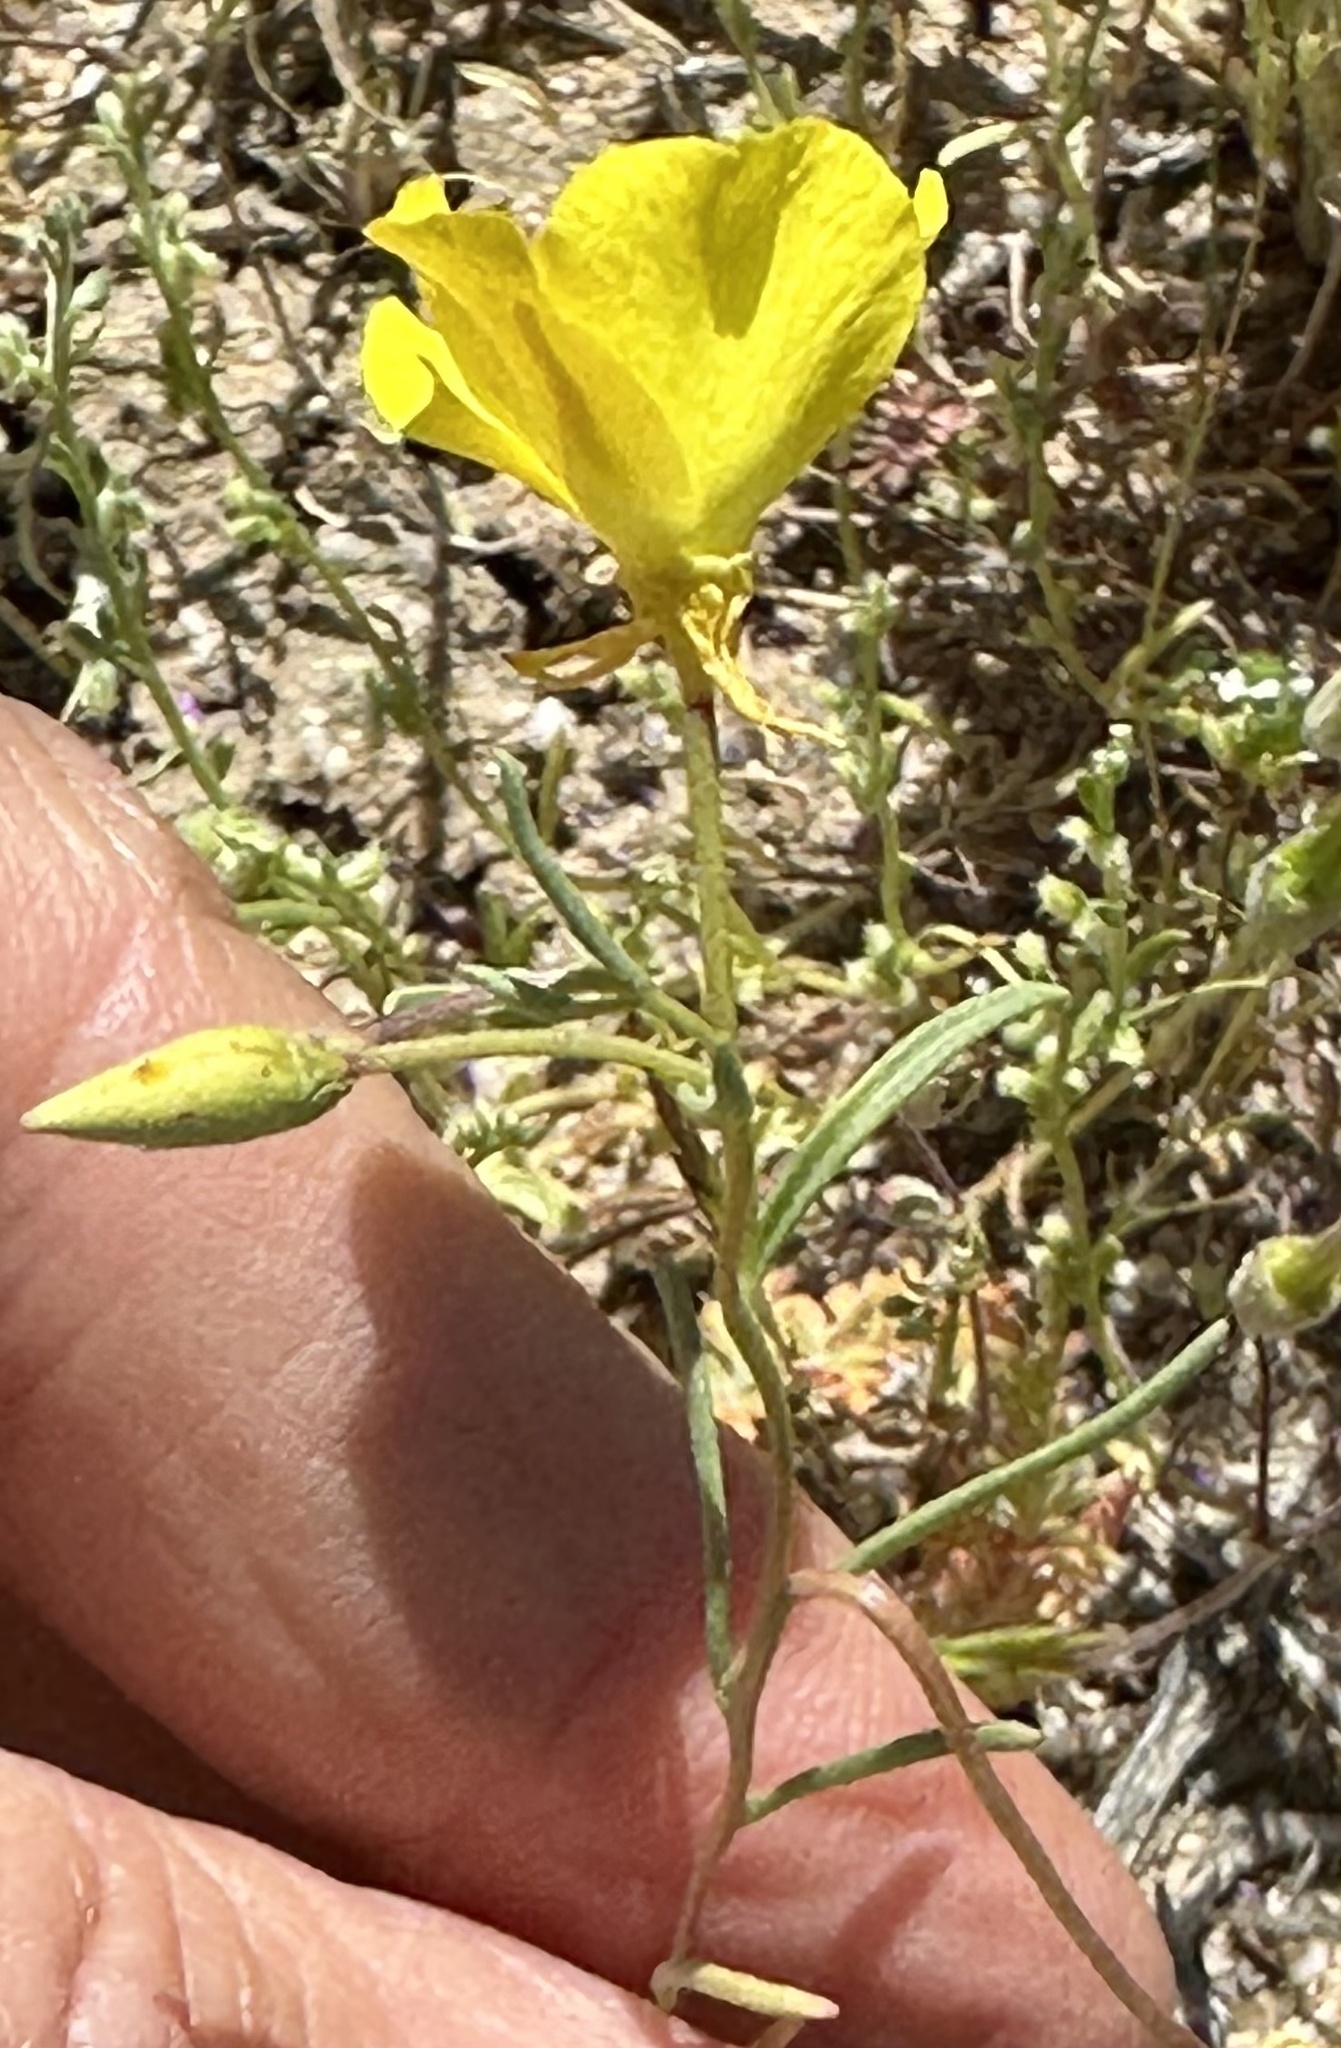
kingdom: Plantae
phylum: Tracheophyta
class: Magnoliopsida
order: Myrtales
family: Onagraceae
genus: Camissonia
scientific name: Camissonia campestris
